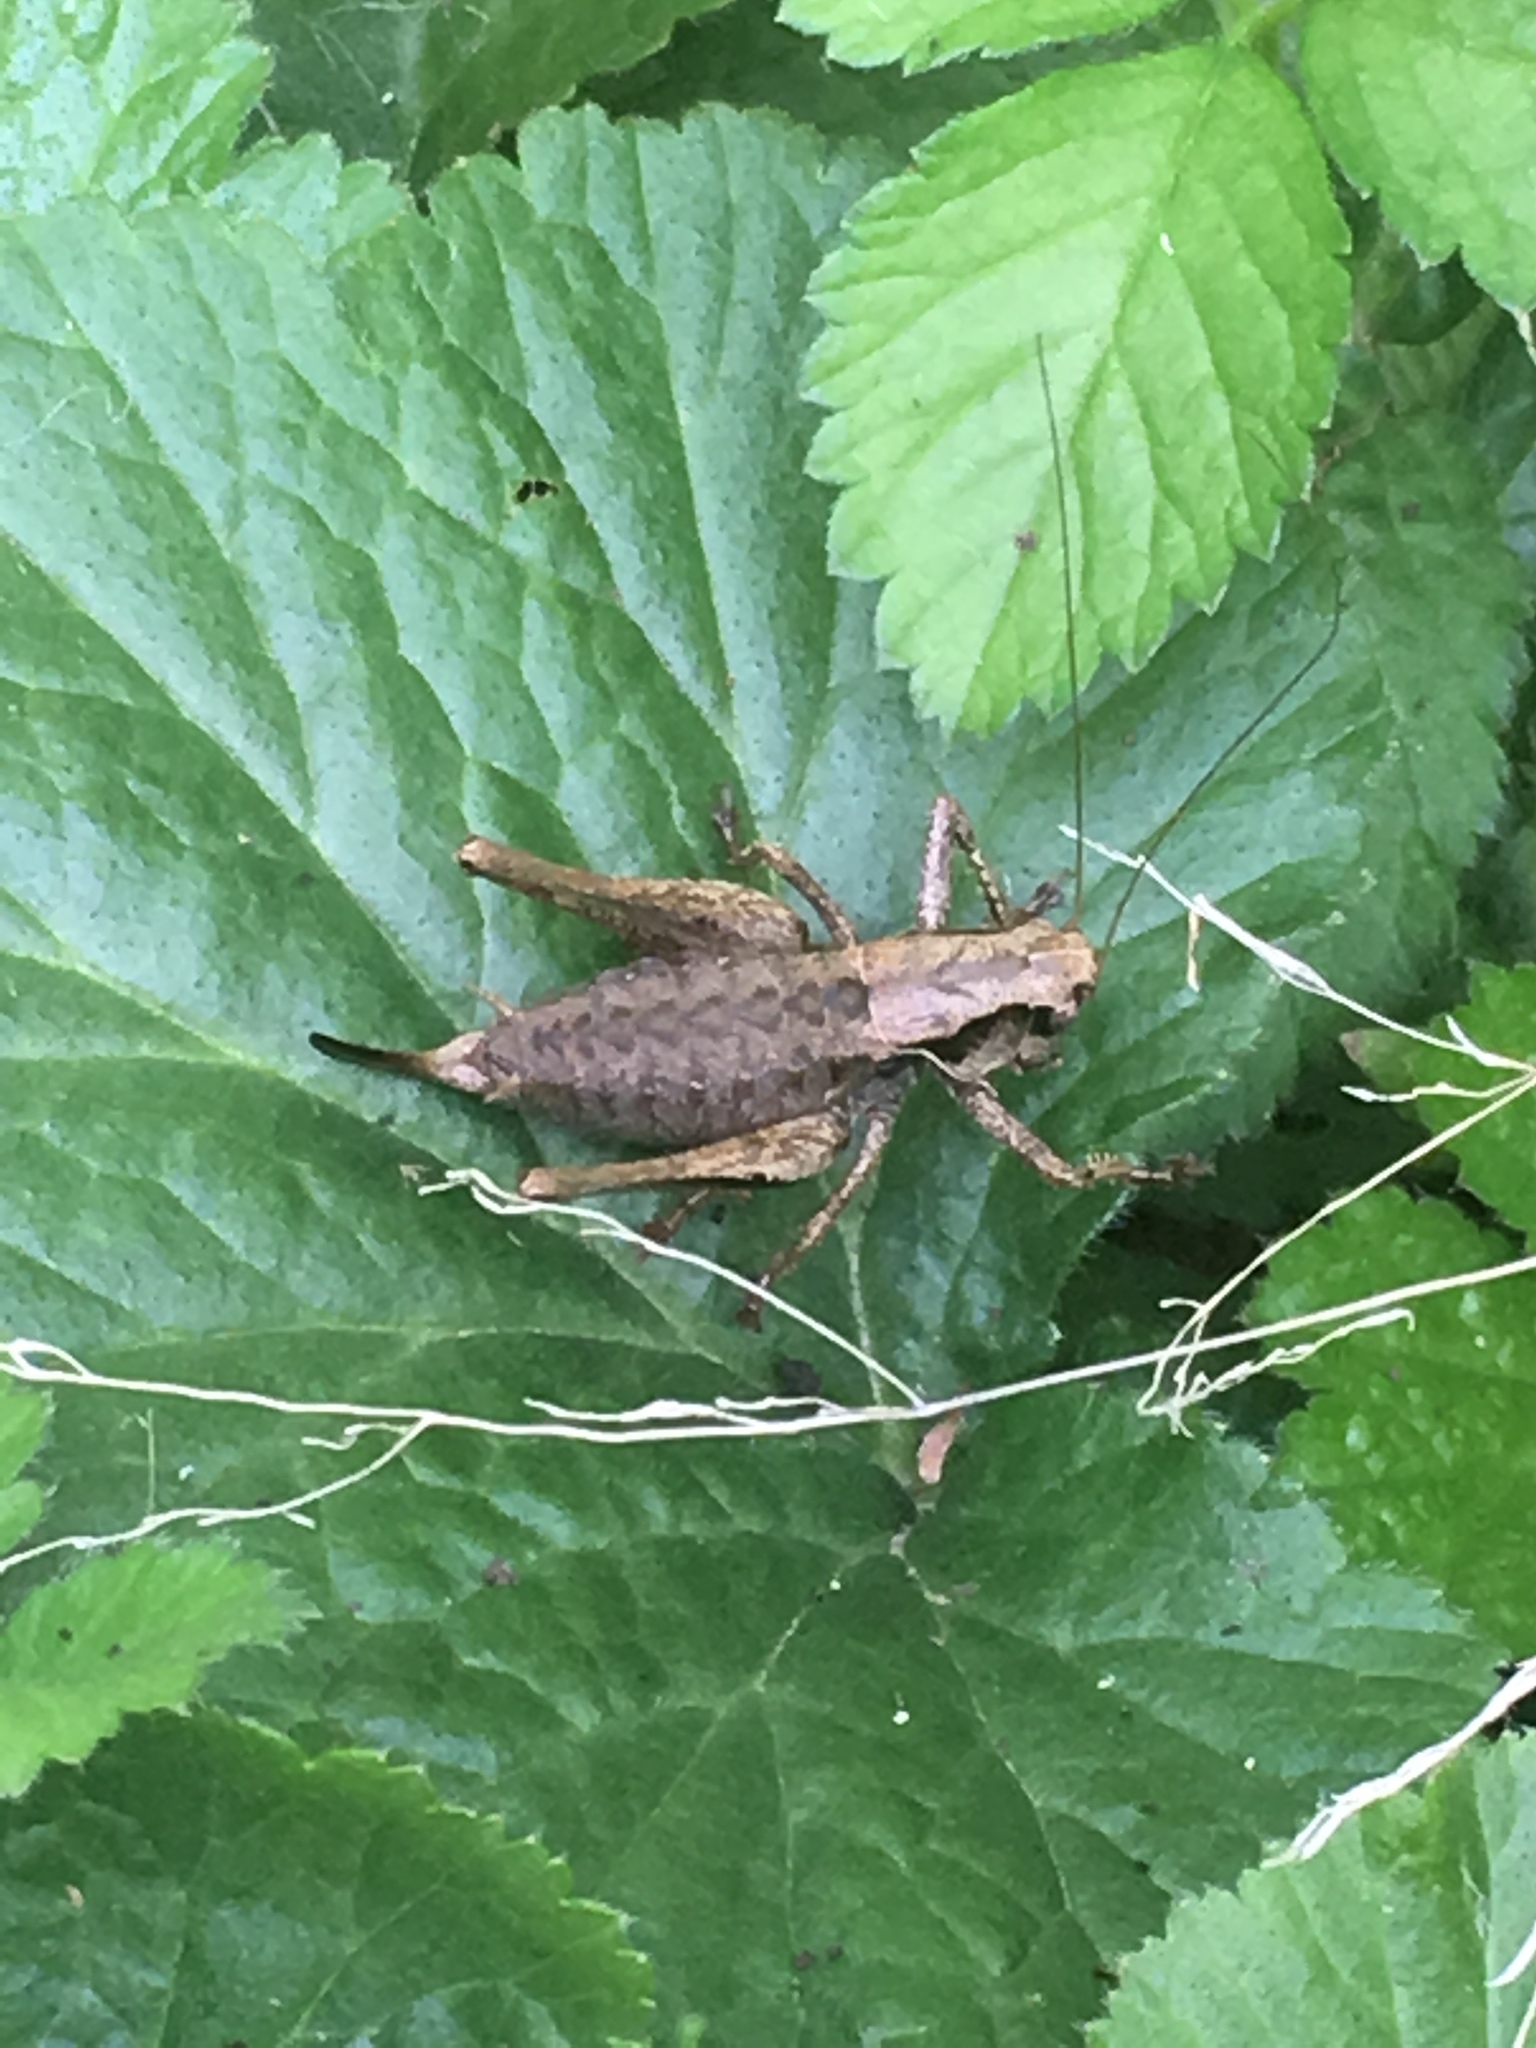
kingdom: Animalia
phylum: Arthropoda
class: Insecta
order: Orthoptera
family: Tettigoniidae
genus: Pholidoptera
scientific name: Pholidoptera griseoaptera
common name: Dark bush-cricket
